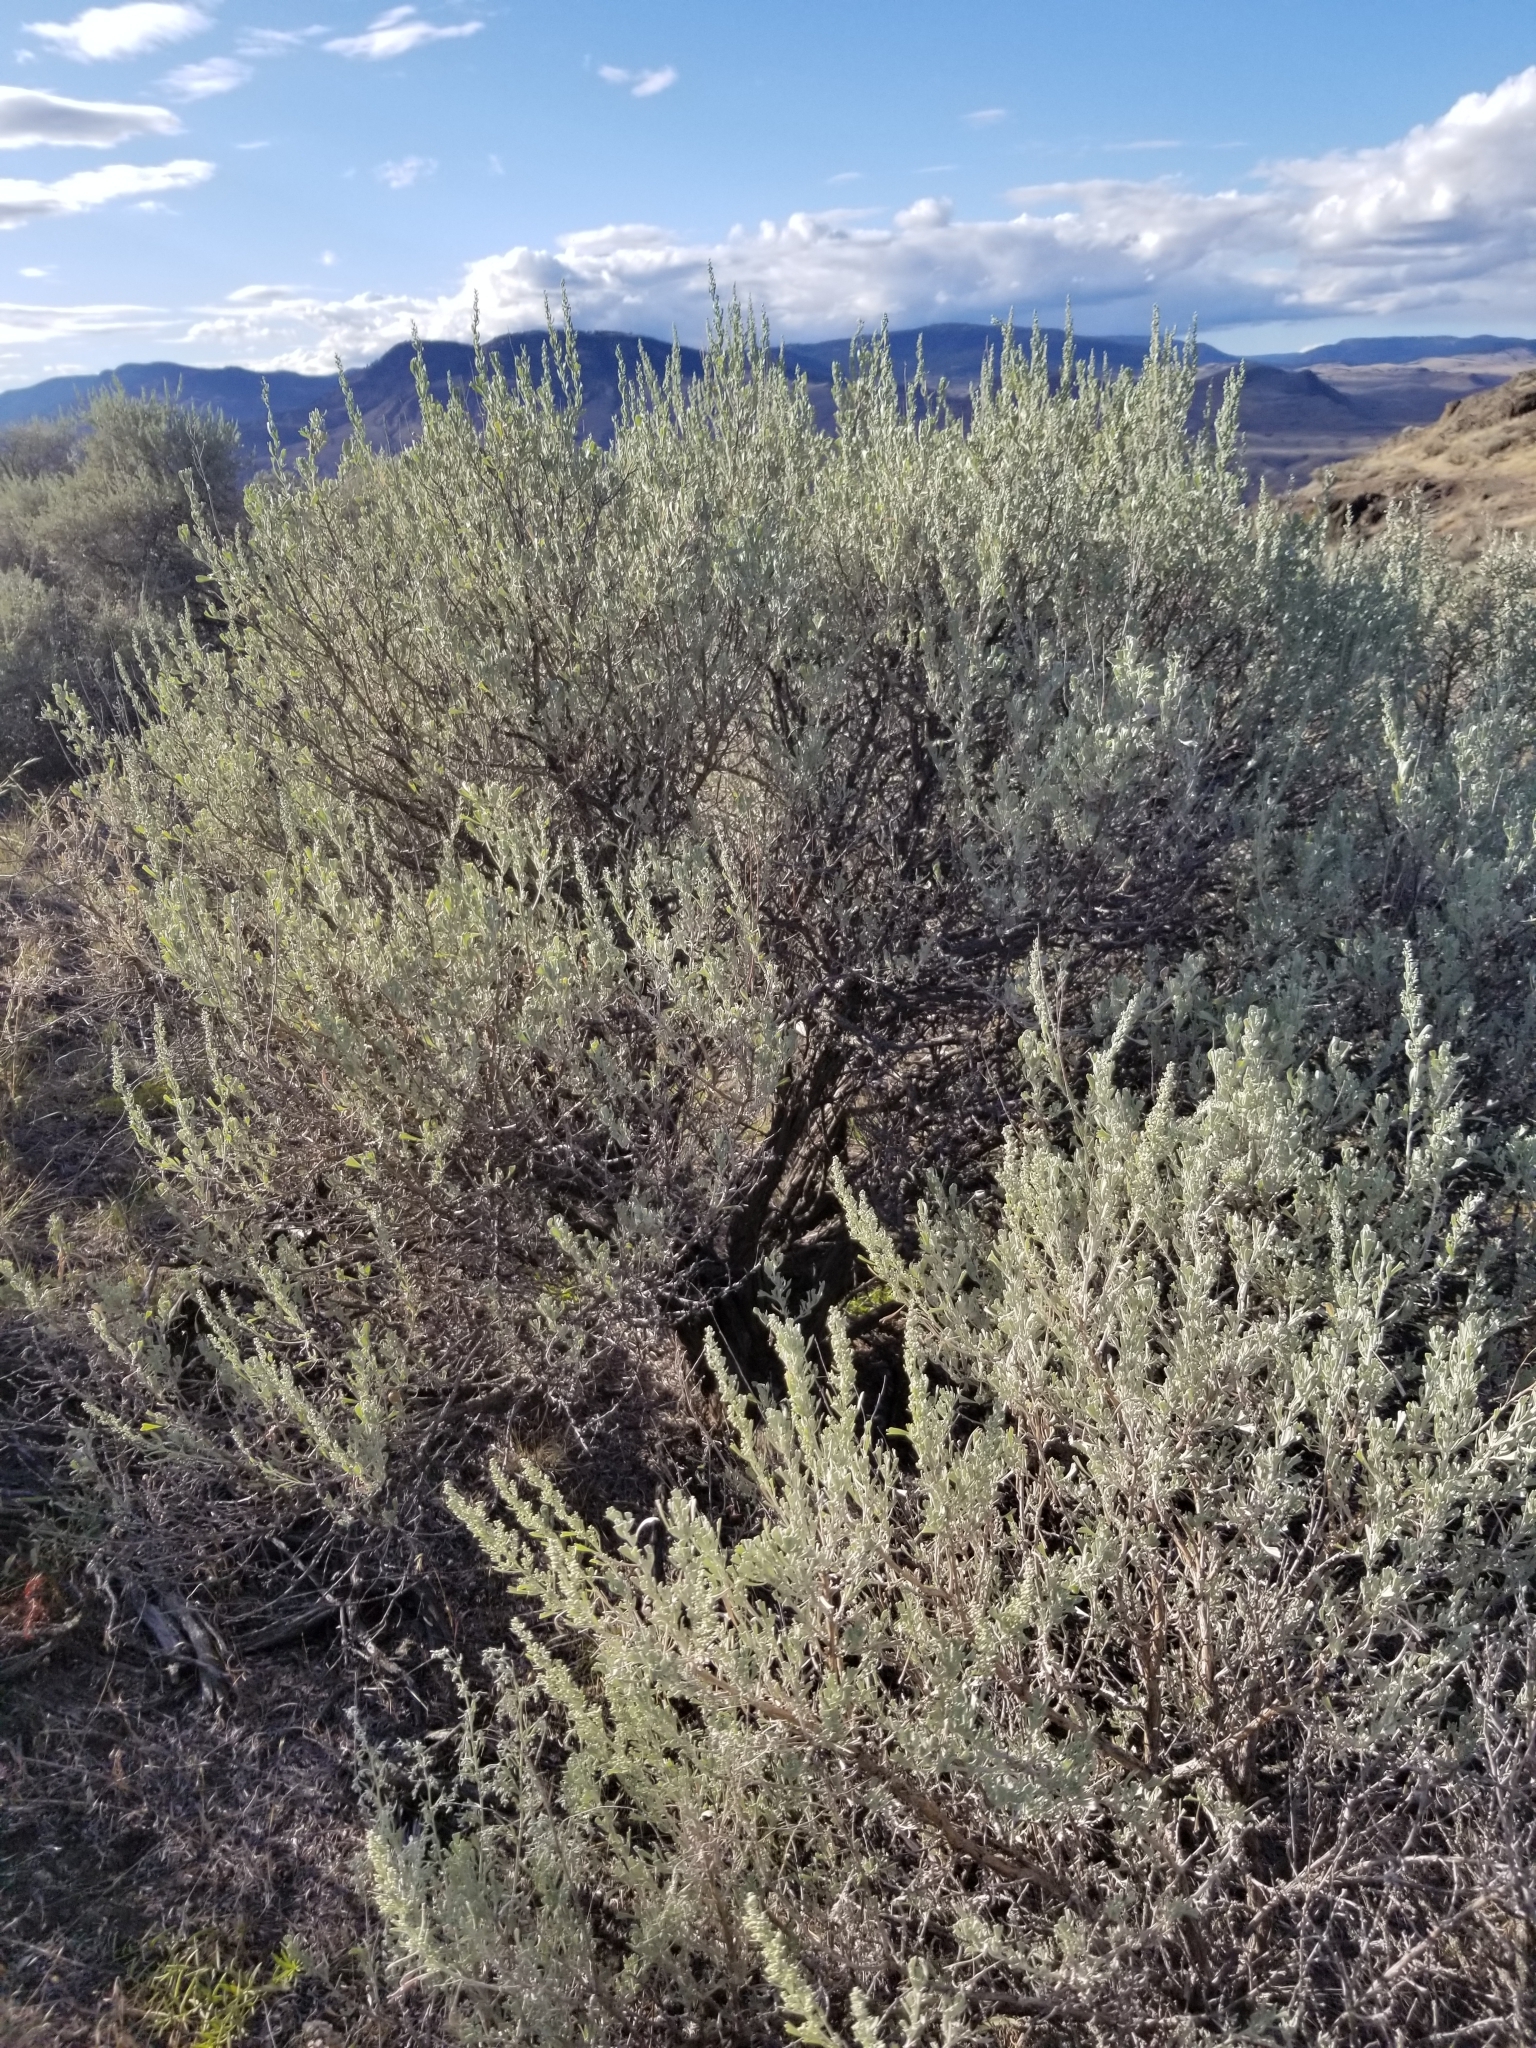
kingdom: Plantae
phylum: Tracheophyta
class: Magnoliopsida
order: Asterales
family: Asteraceae
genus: Artemisia
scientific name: Artemisia tridentata
